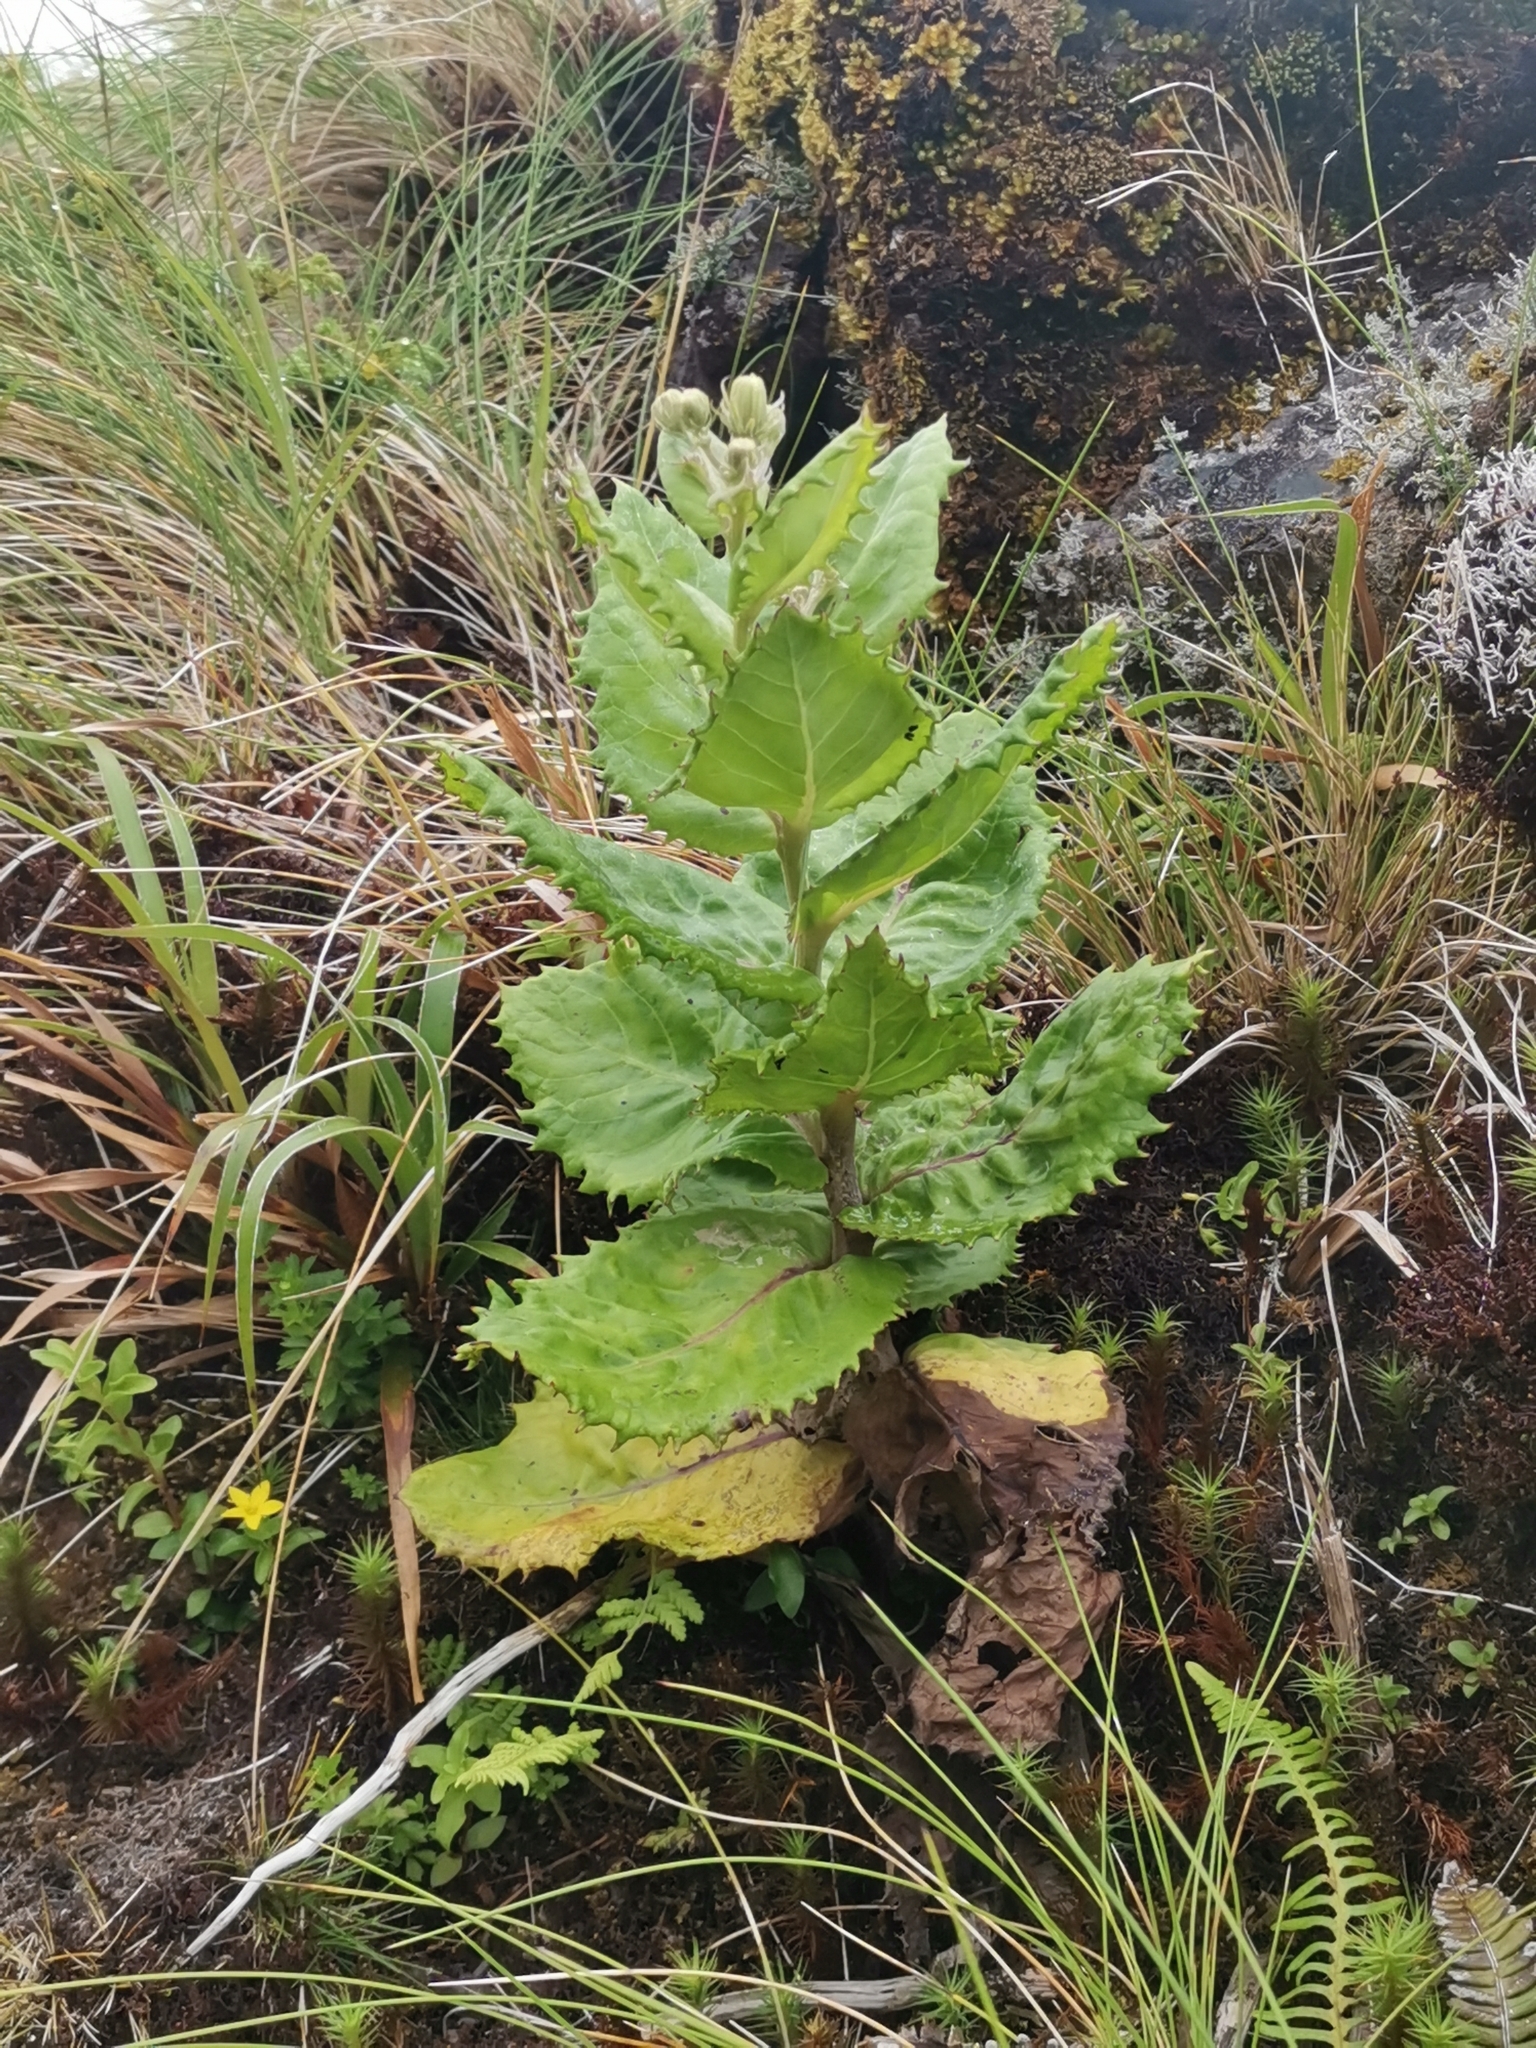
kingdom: Plantae
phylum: Tracheophyta
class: Magnoliopsida
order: Asterales
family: Asteraceae
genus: Tolpis
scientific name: Tolpis azorica
